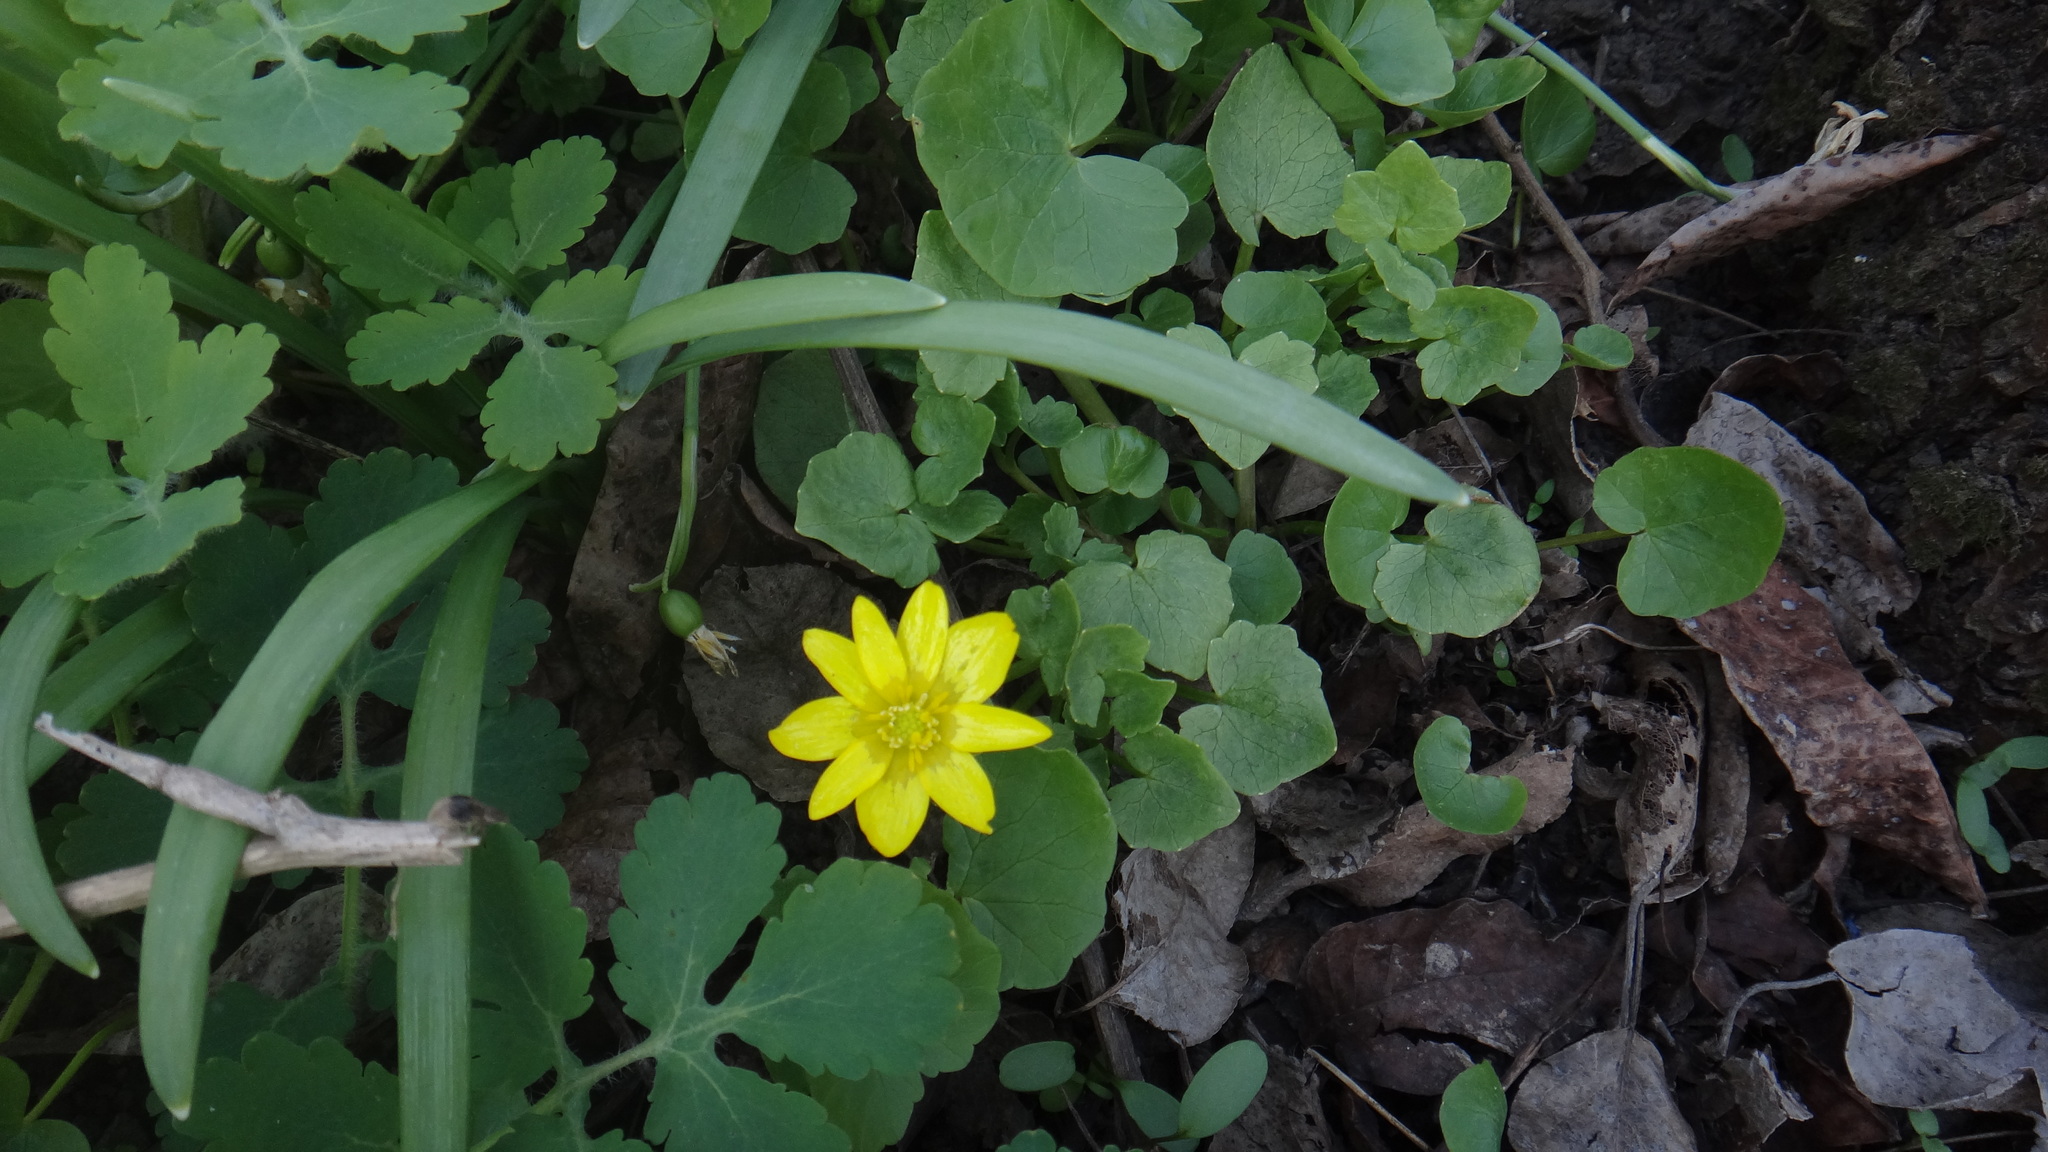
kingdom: Plantae
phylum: Tracheophyta
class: Magnoliopsida
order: Ranunculales
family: Ranunculaceae
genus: Ficaria
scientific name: Ficaria verna
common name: Lesser celandine
